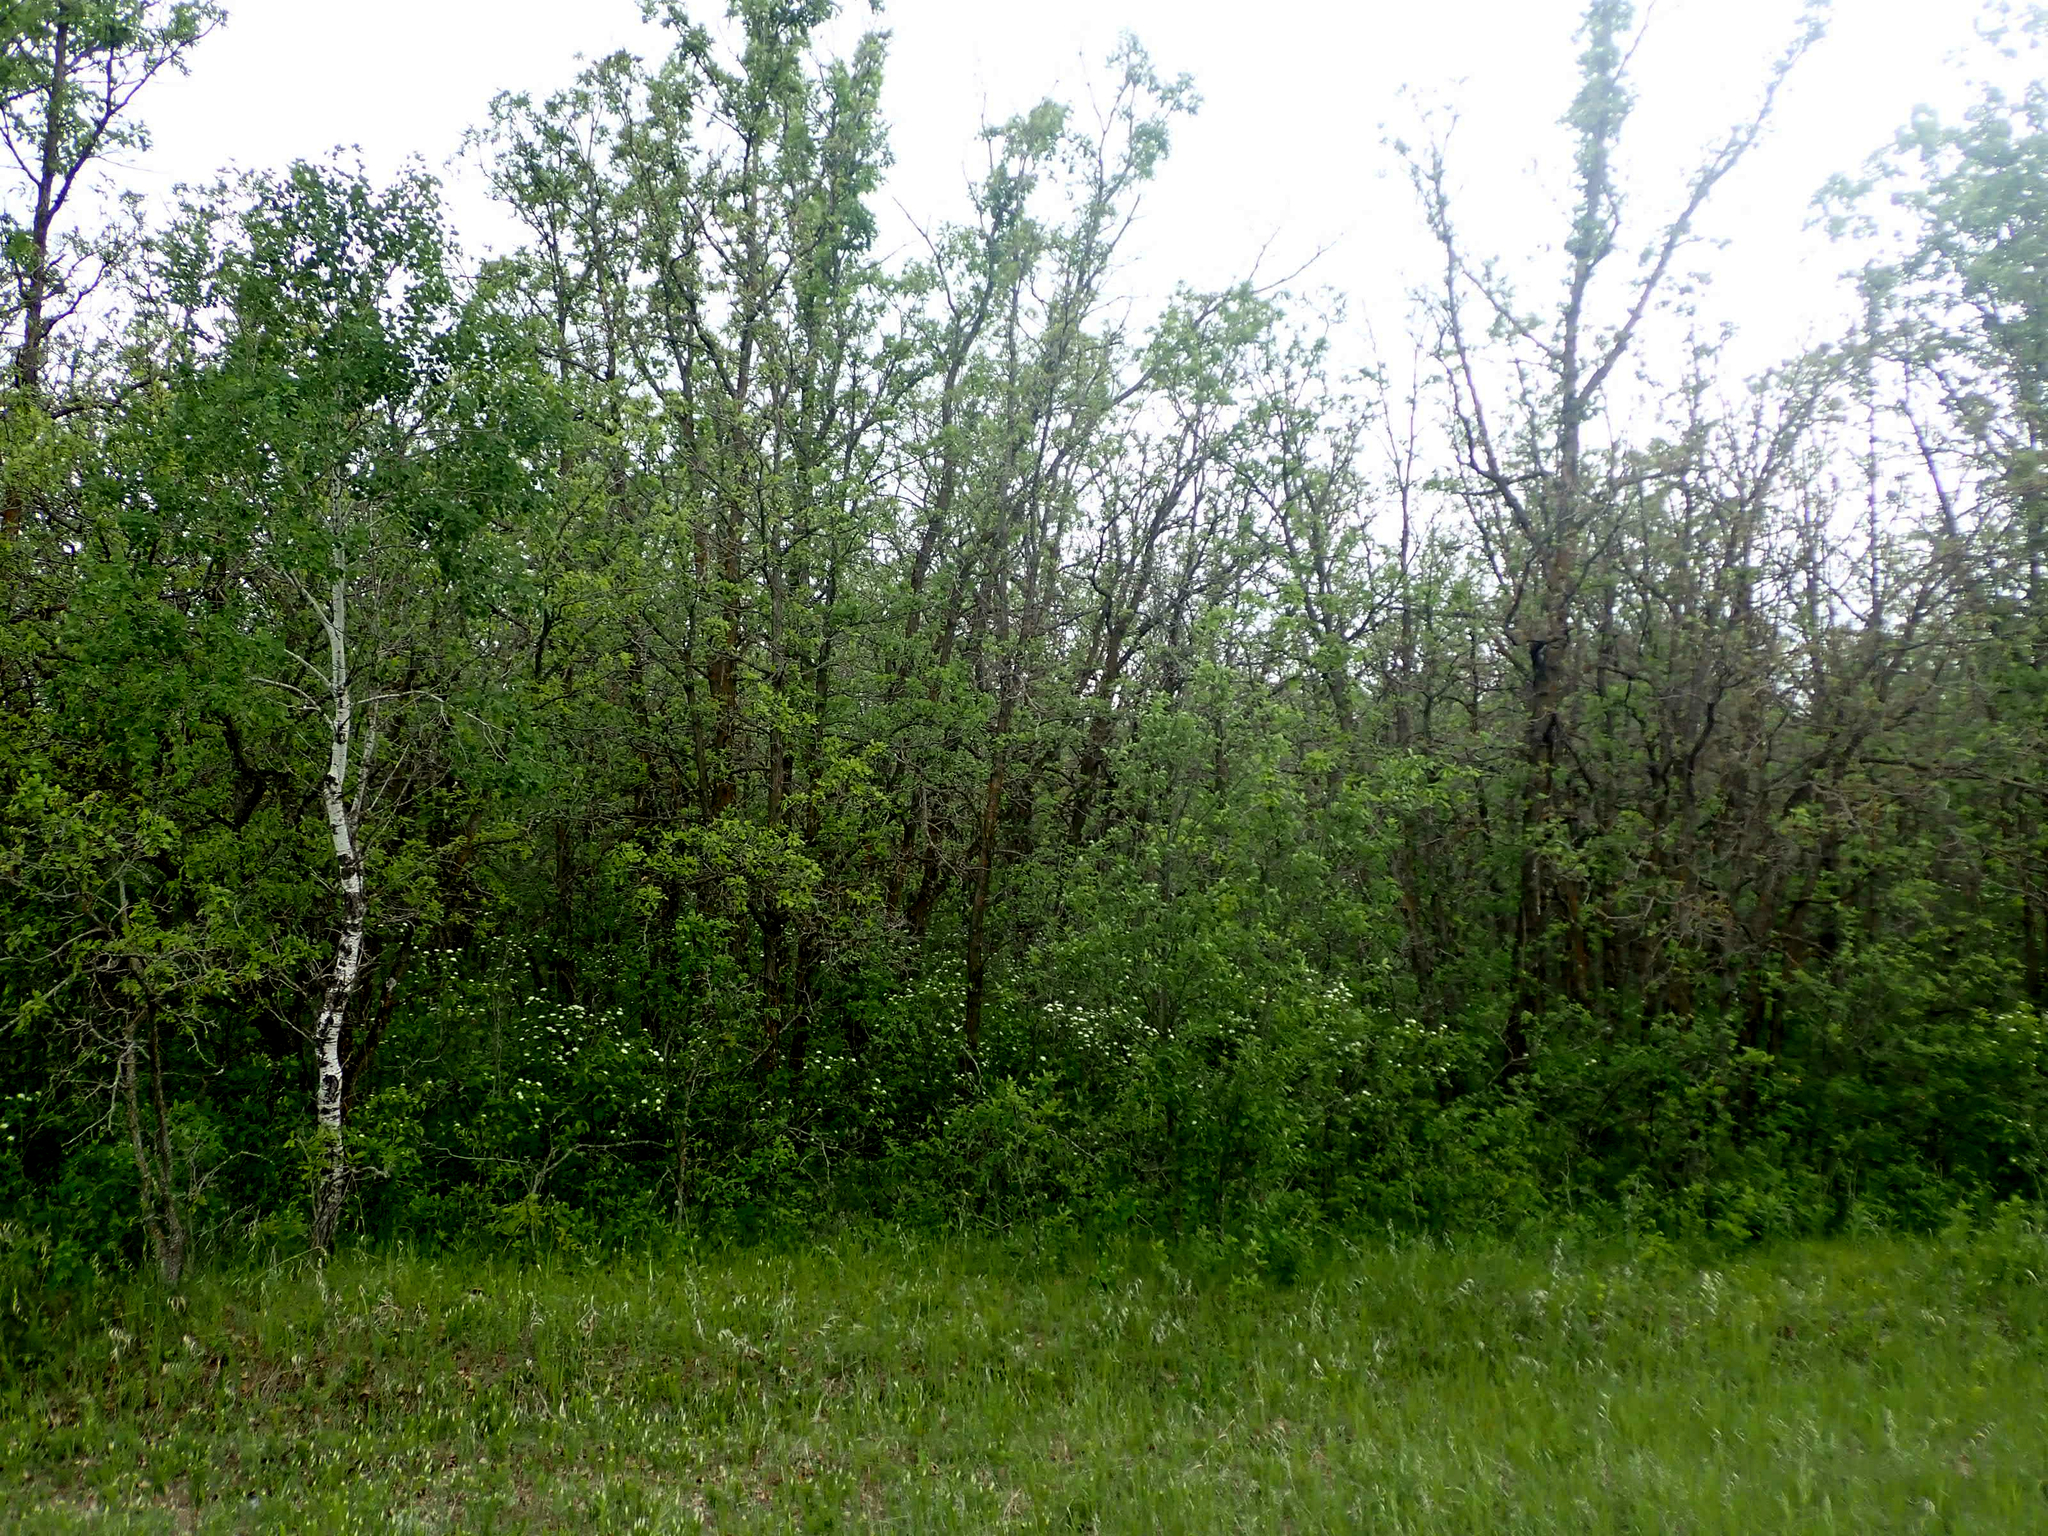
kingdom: Plantae
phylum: Tracheophyta
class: Magnoliopsida
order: Fagales
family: Fagaceae
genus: Quercus
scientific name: Quercus macrocarpa
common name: Bur oak
